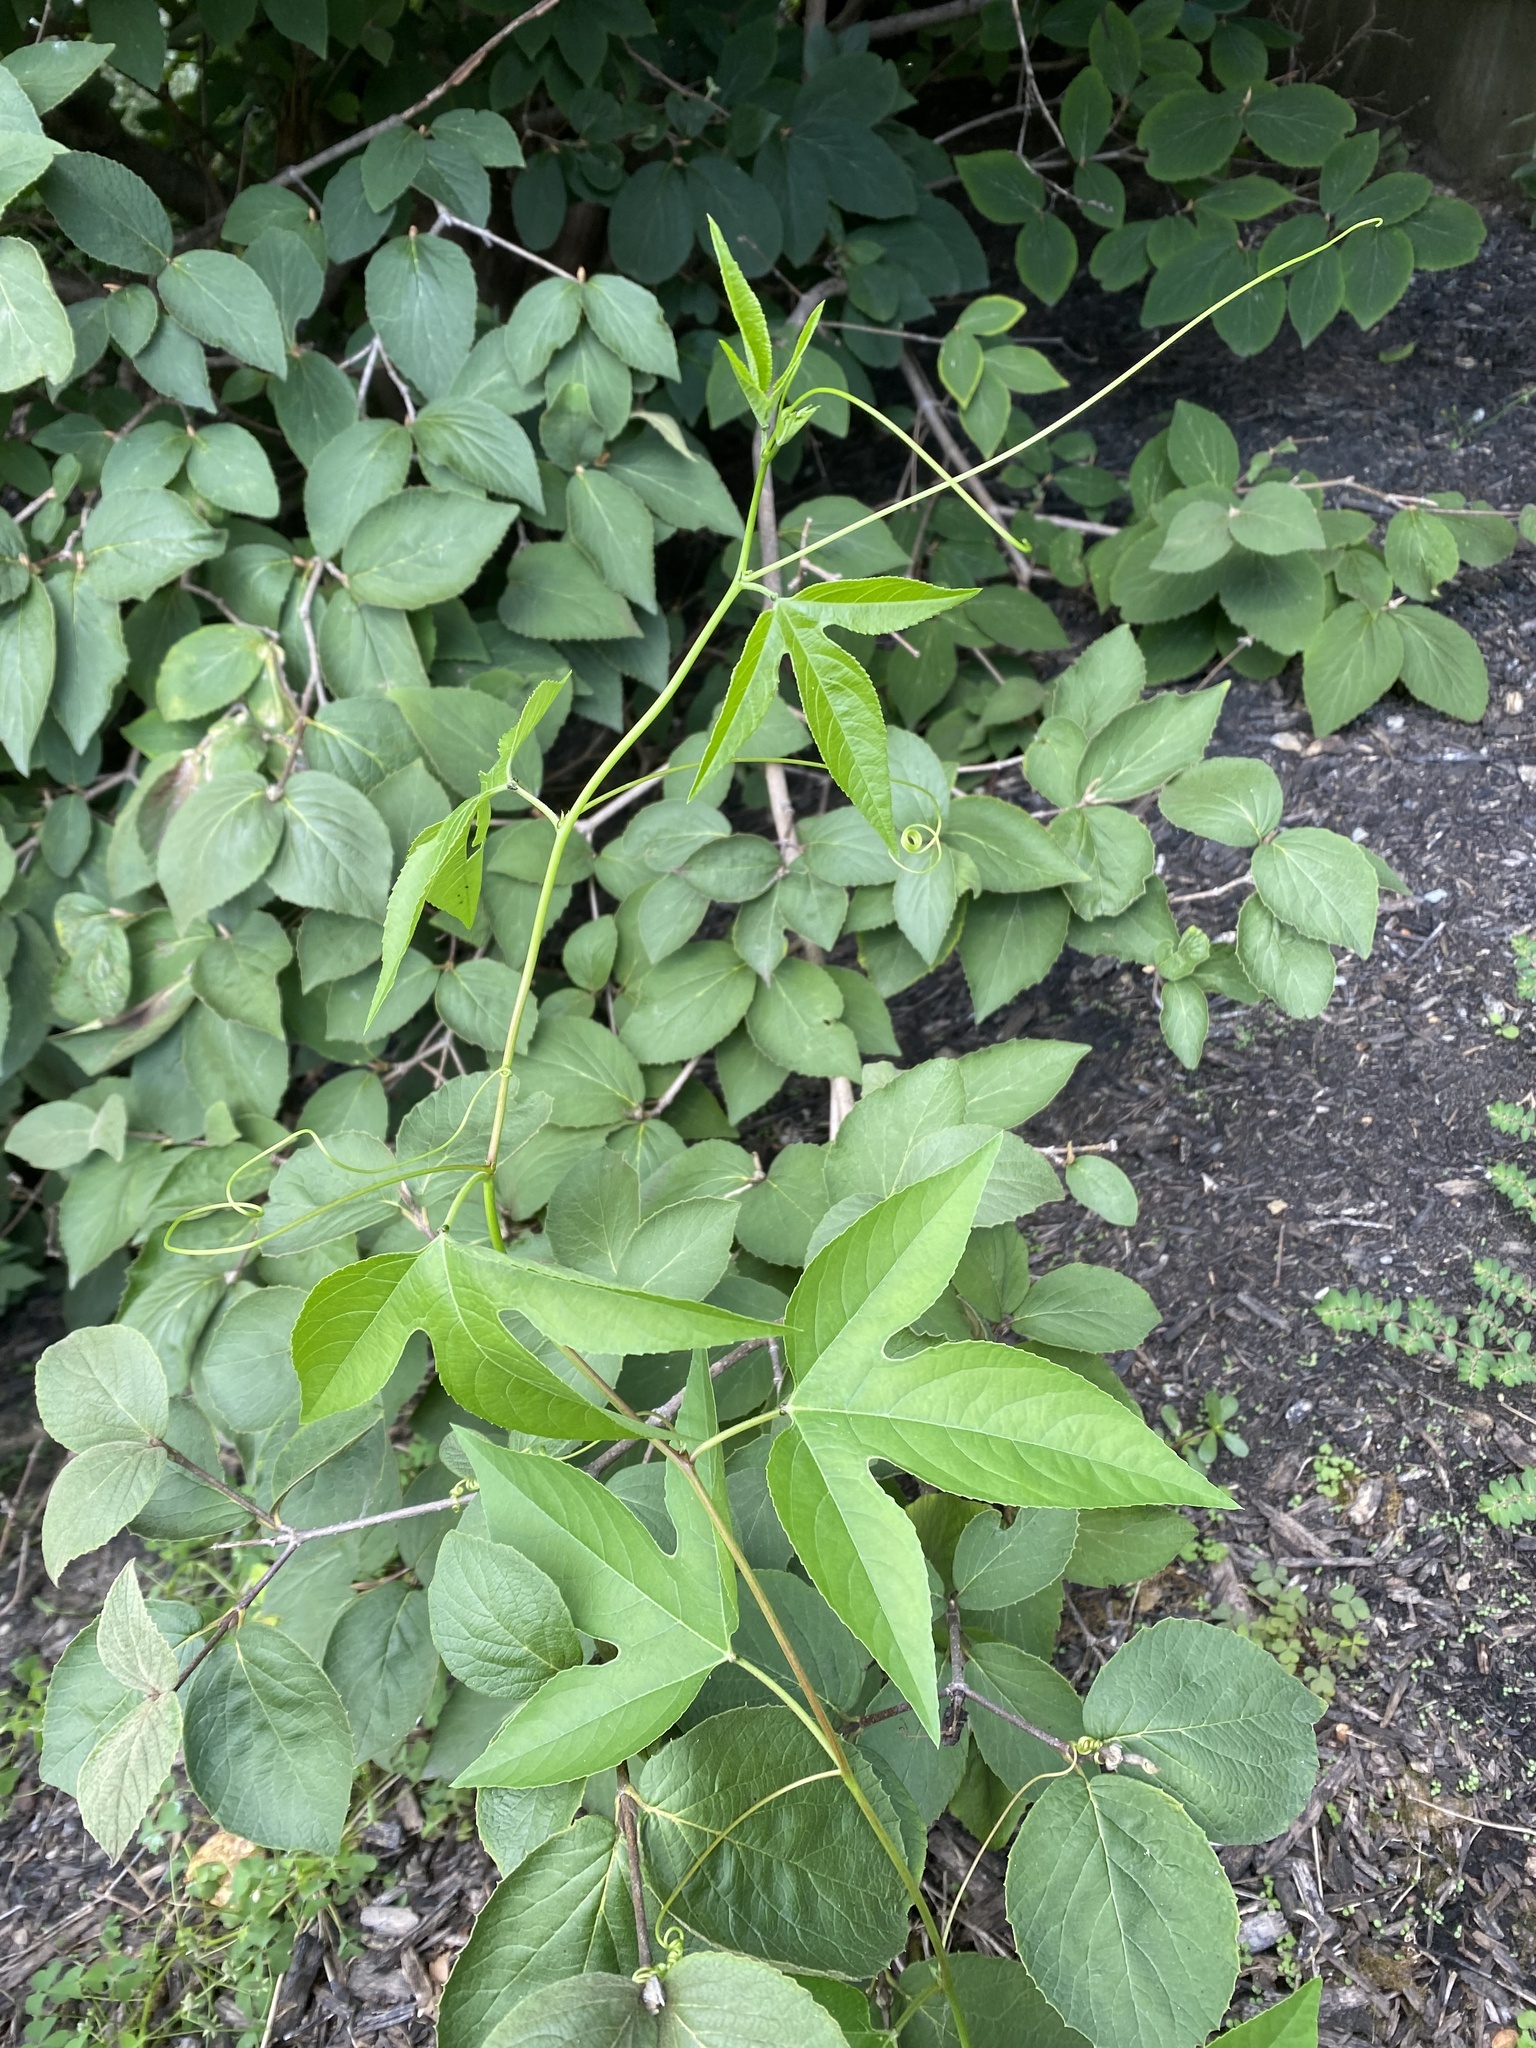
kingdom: Plantae
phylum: Tracheophyta
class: Magnoliopsida
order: Malpighiales
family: Passifloraceae
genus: Passiflora
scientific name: Passiflora incarnata
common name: Apricot-vine
